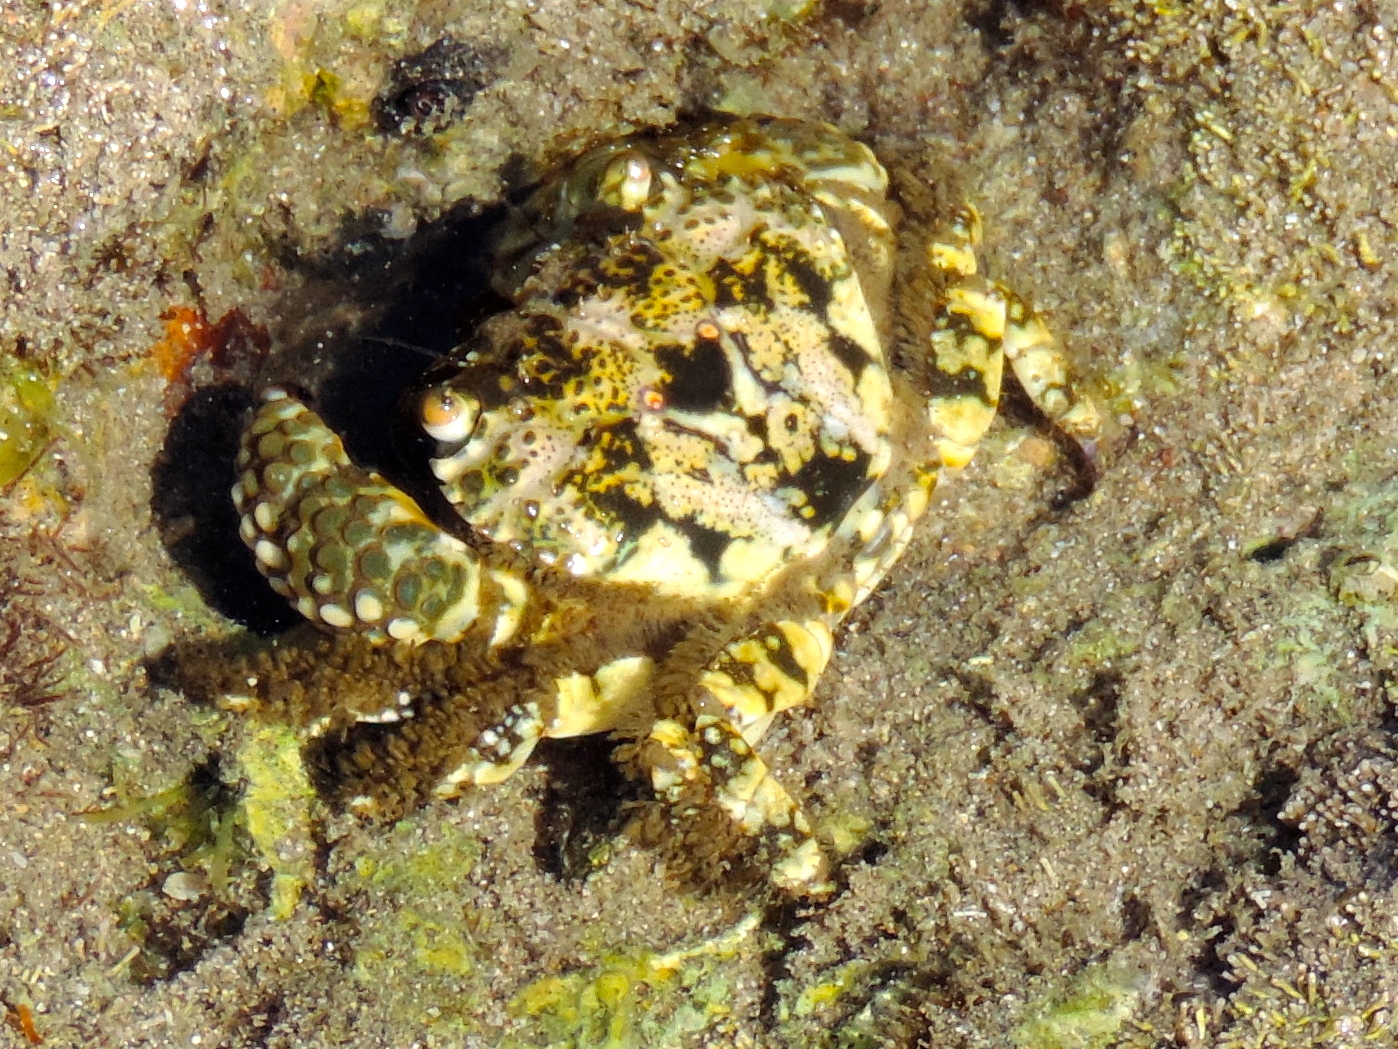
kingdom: Animalia
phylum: Arthropoda
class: Malacostraca
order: Decapoda
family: Eriphiidae
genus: Eriphia
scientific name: Eriphia squamata
